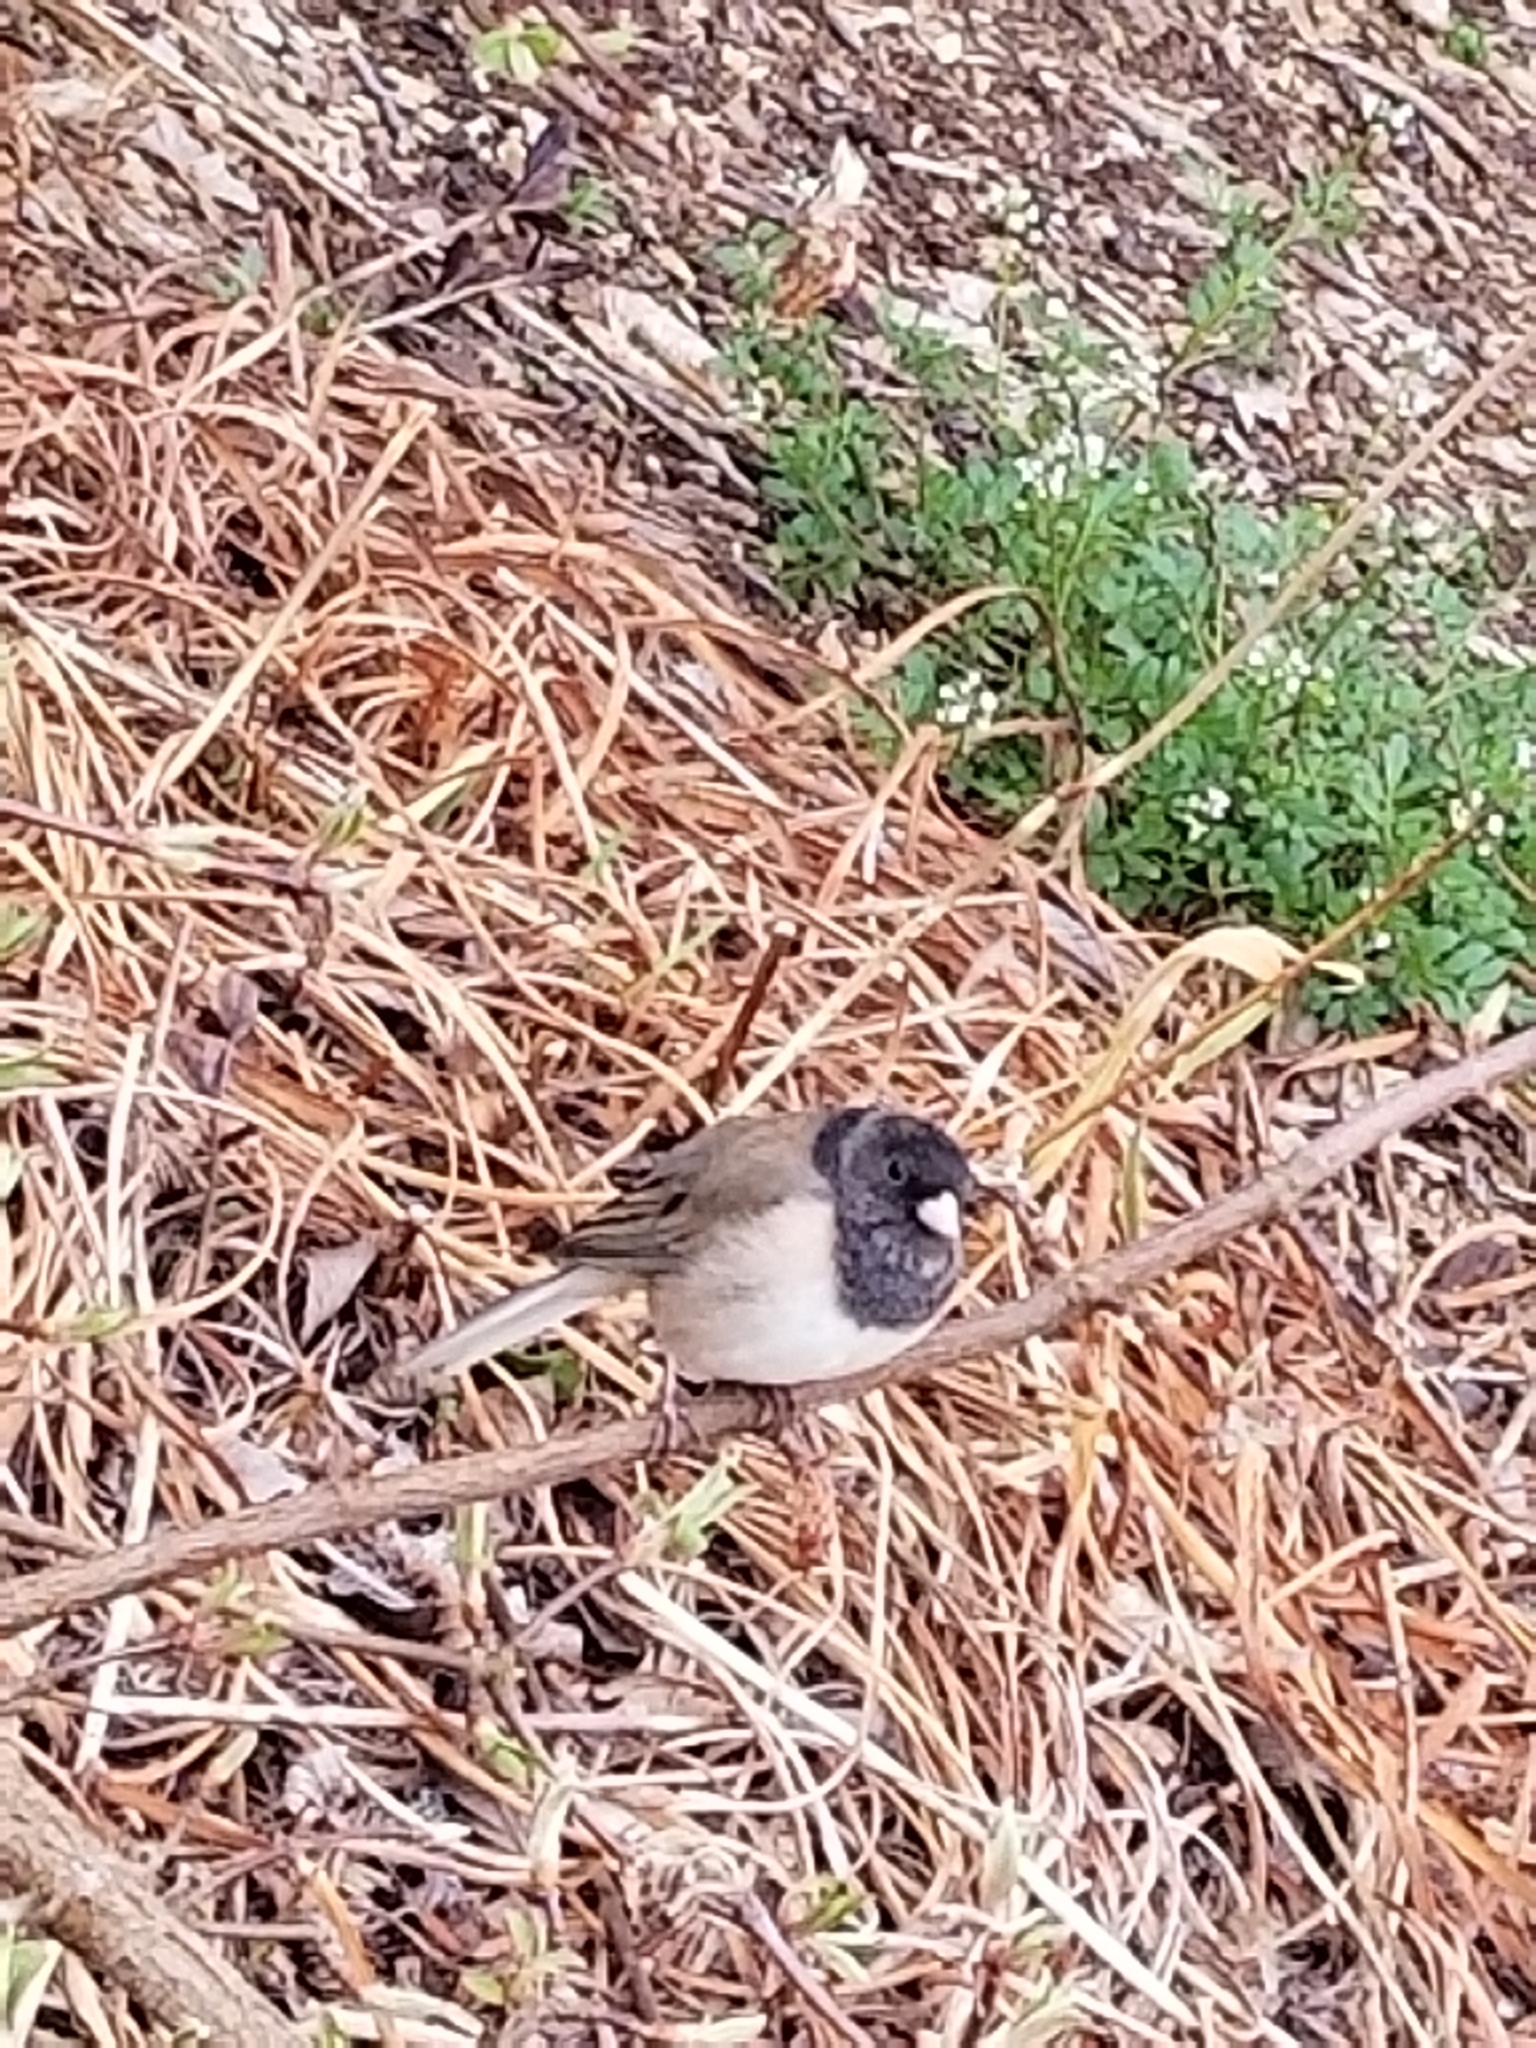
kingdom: Animalia
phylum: Chordata
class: Aves
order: Passeriformes
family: Passerellidae
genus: Junco
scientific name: Junco hyemalis
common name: Dark-eyed junco
